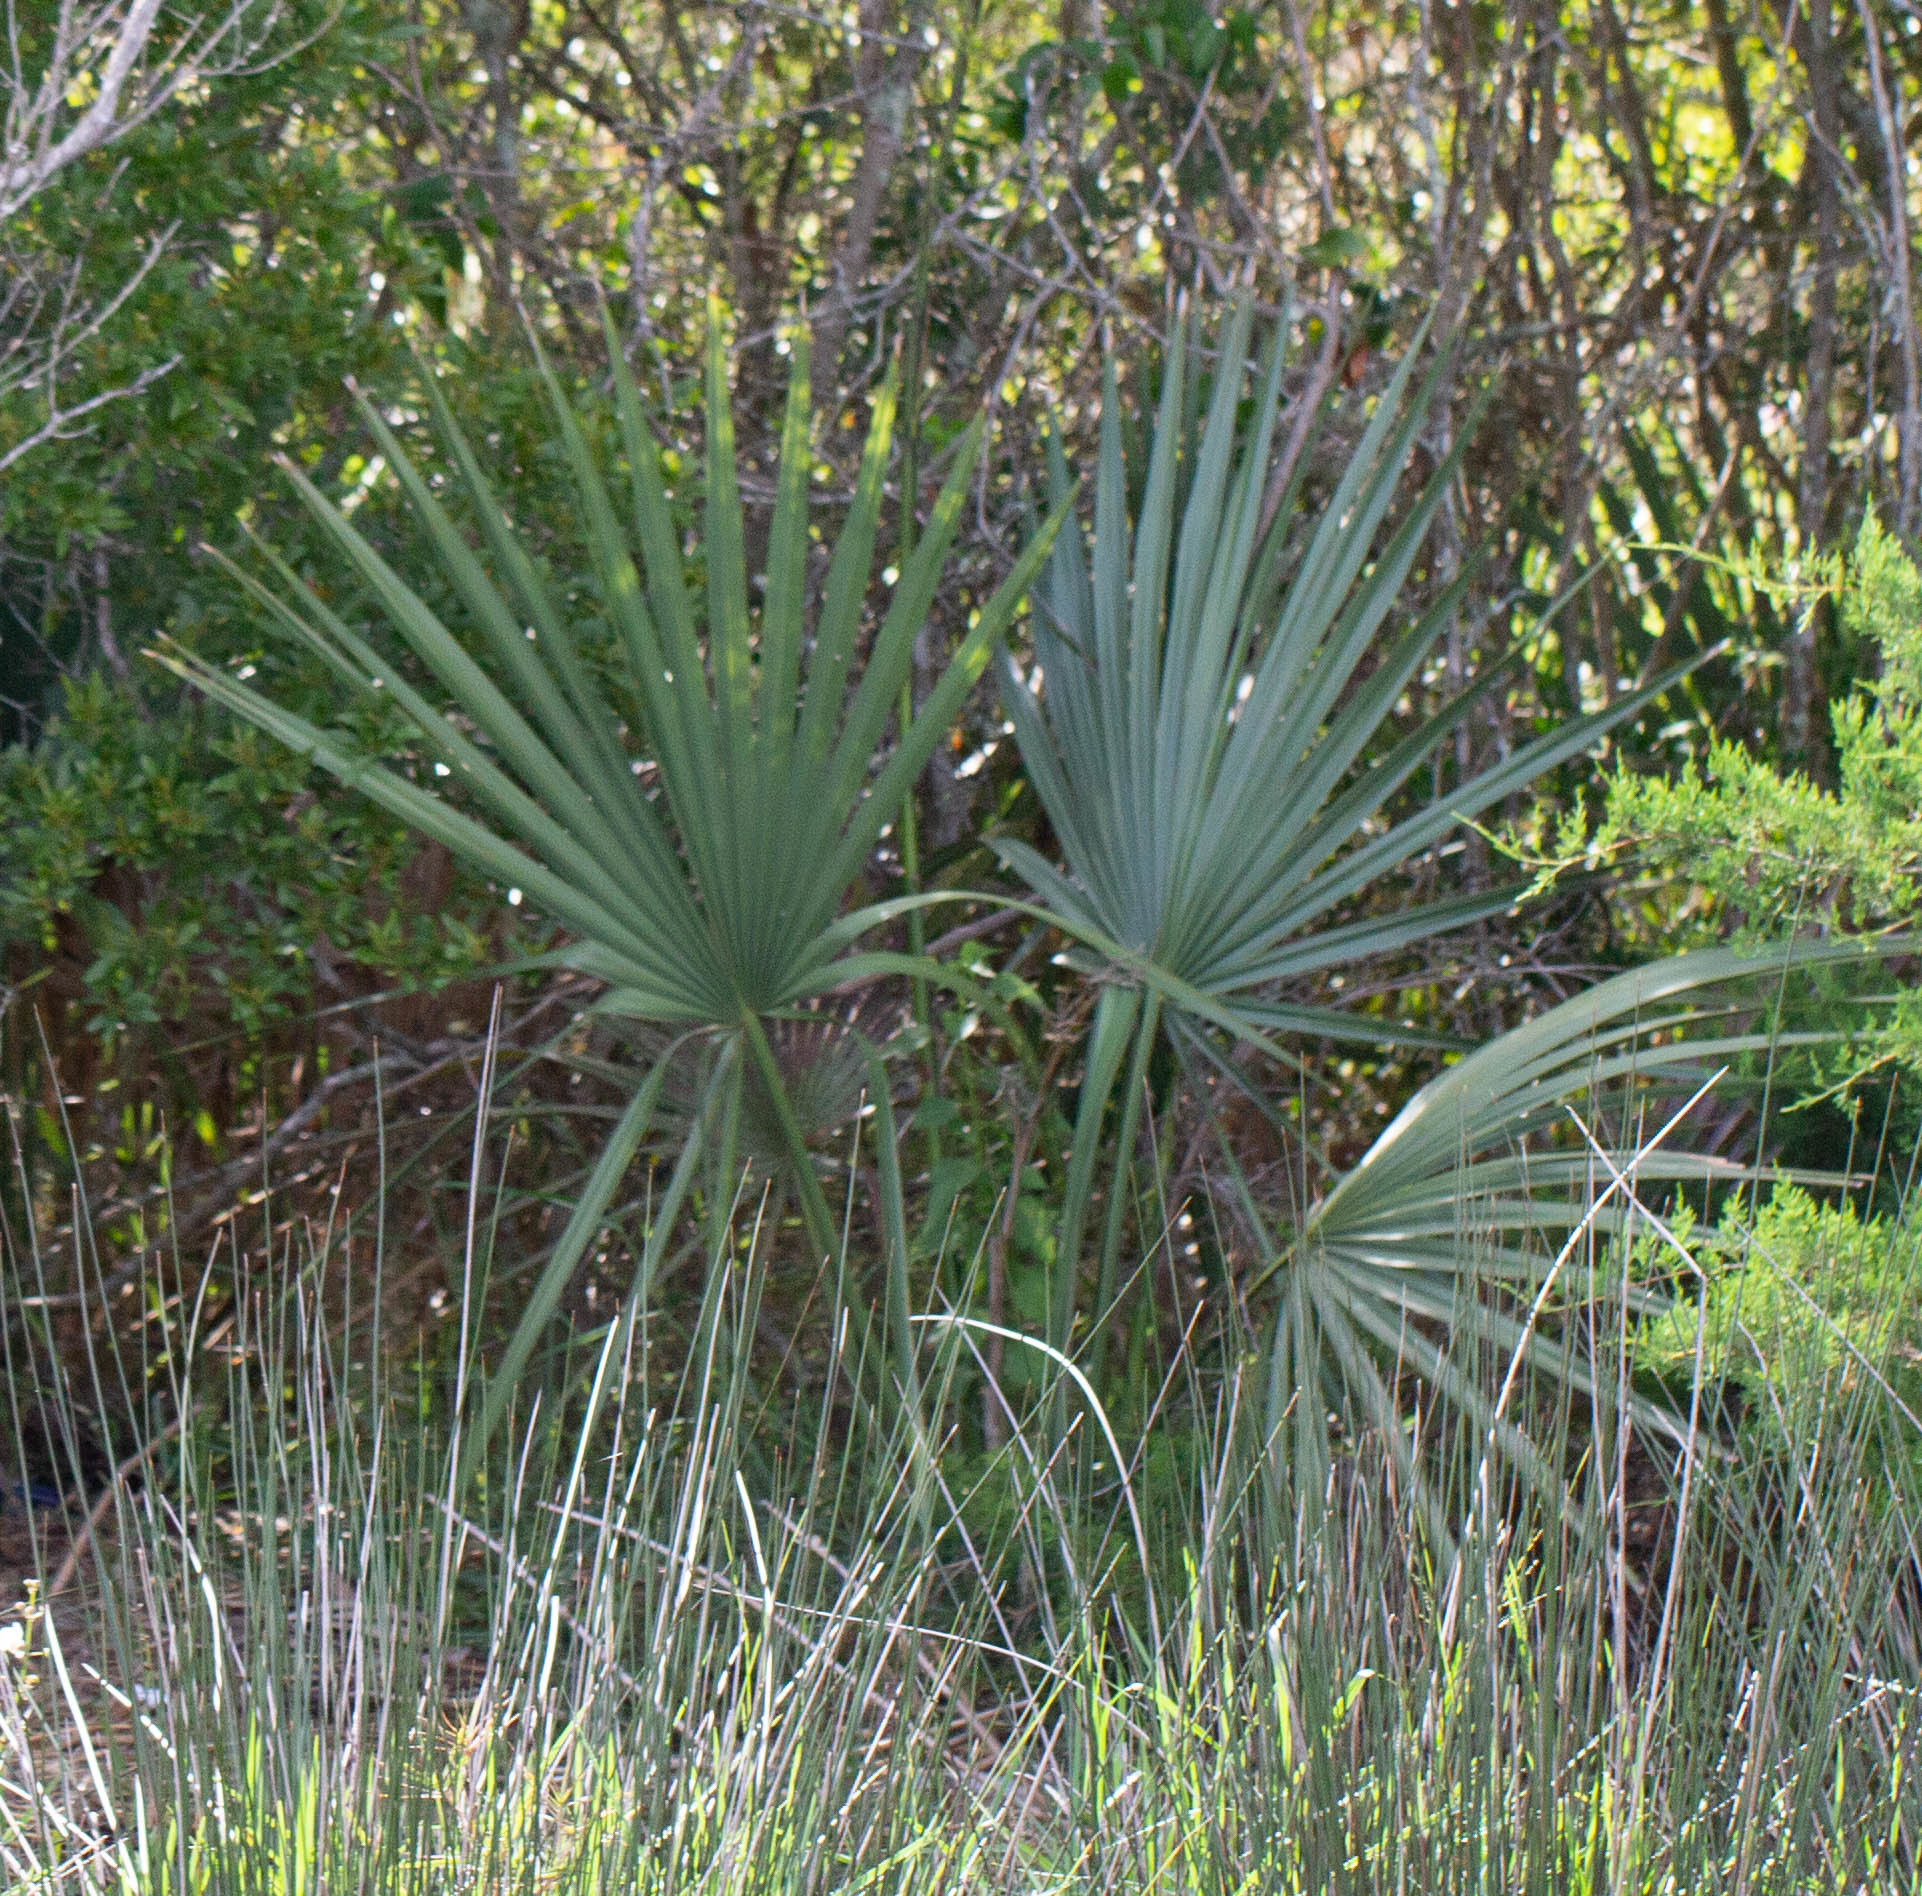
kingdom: Plantae
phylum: Tracheophyta
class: Liliopsida
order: Arecales
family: Arecaceae
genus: Sabal
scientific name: Sabal minor
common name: Dwarf palmetto
